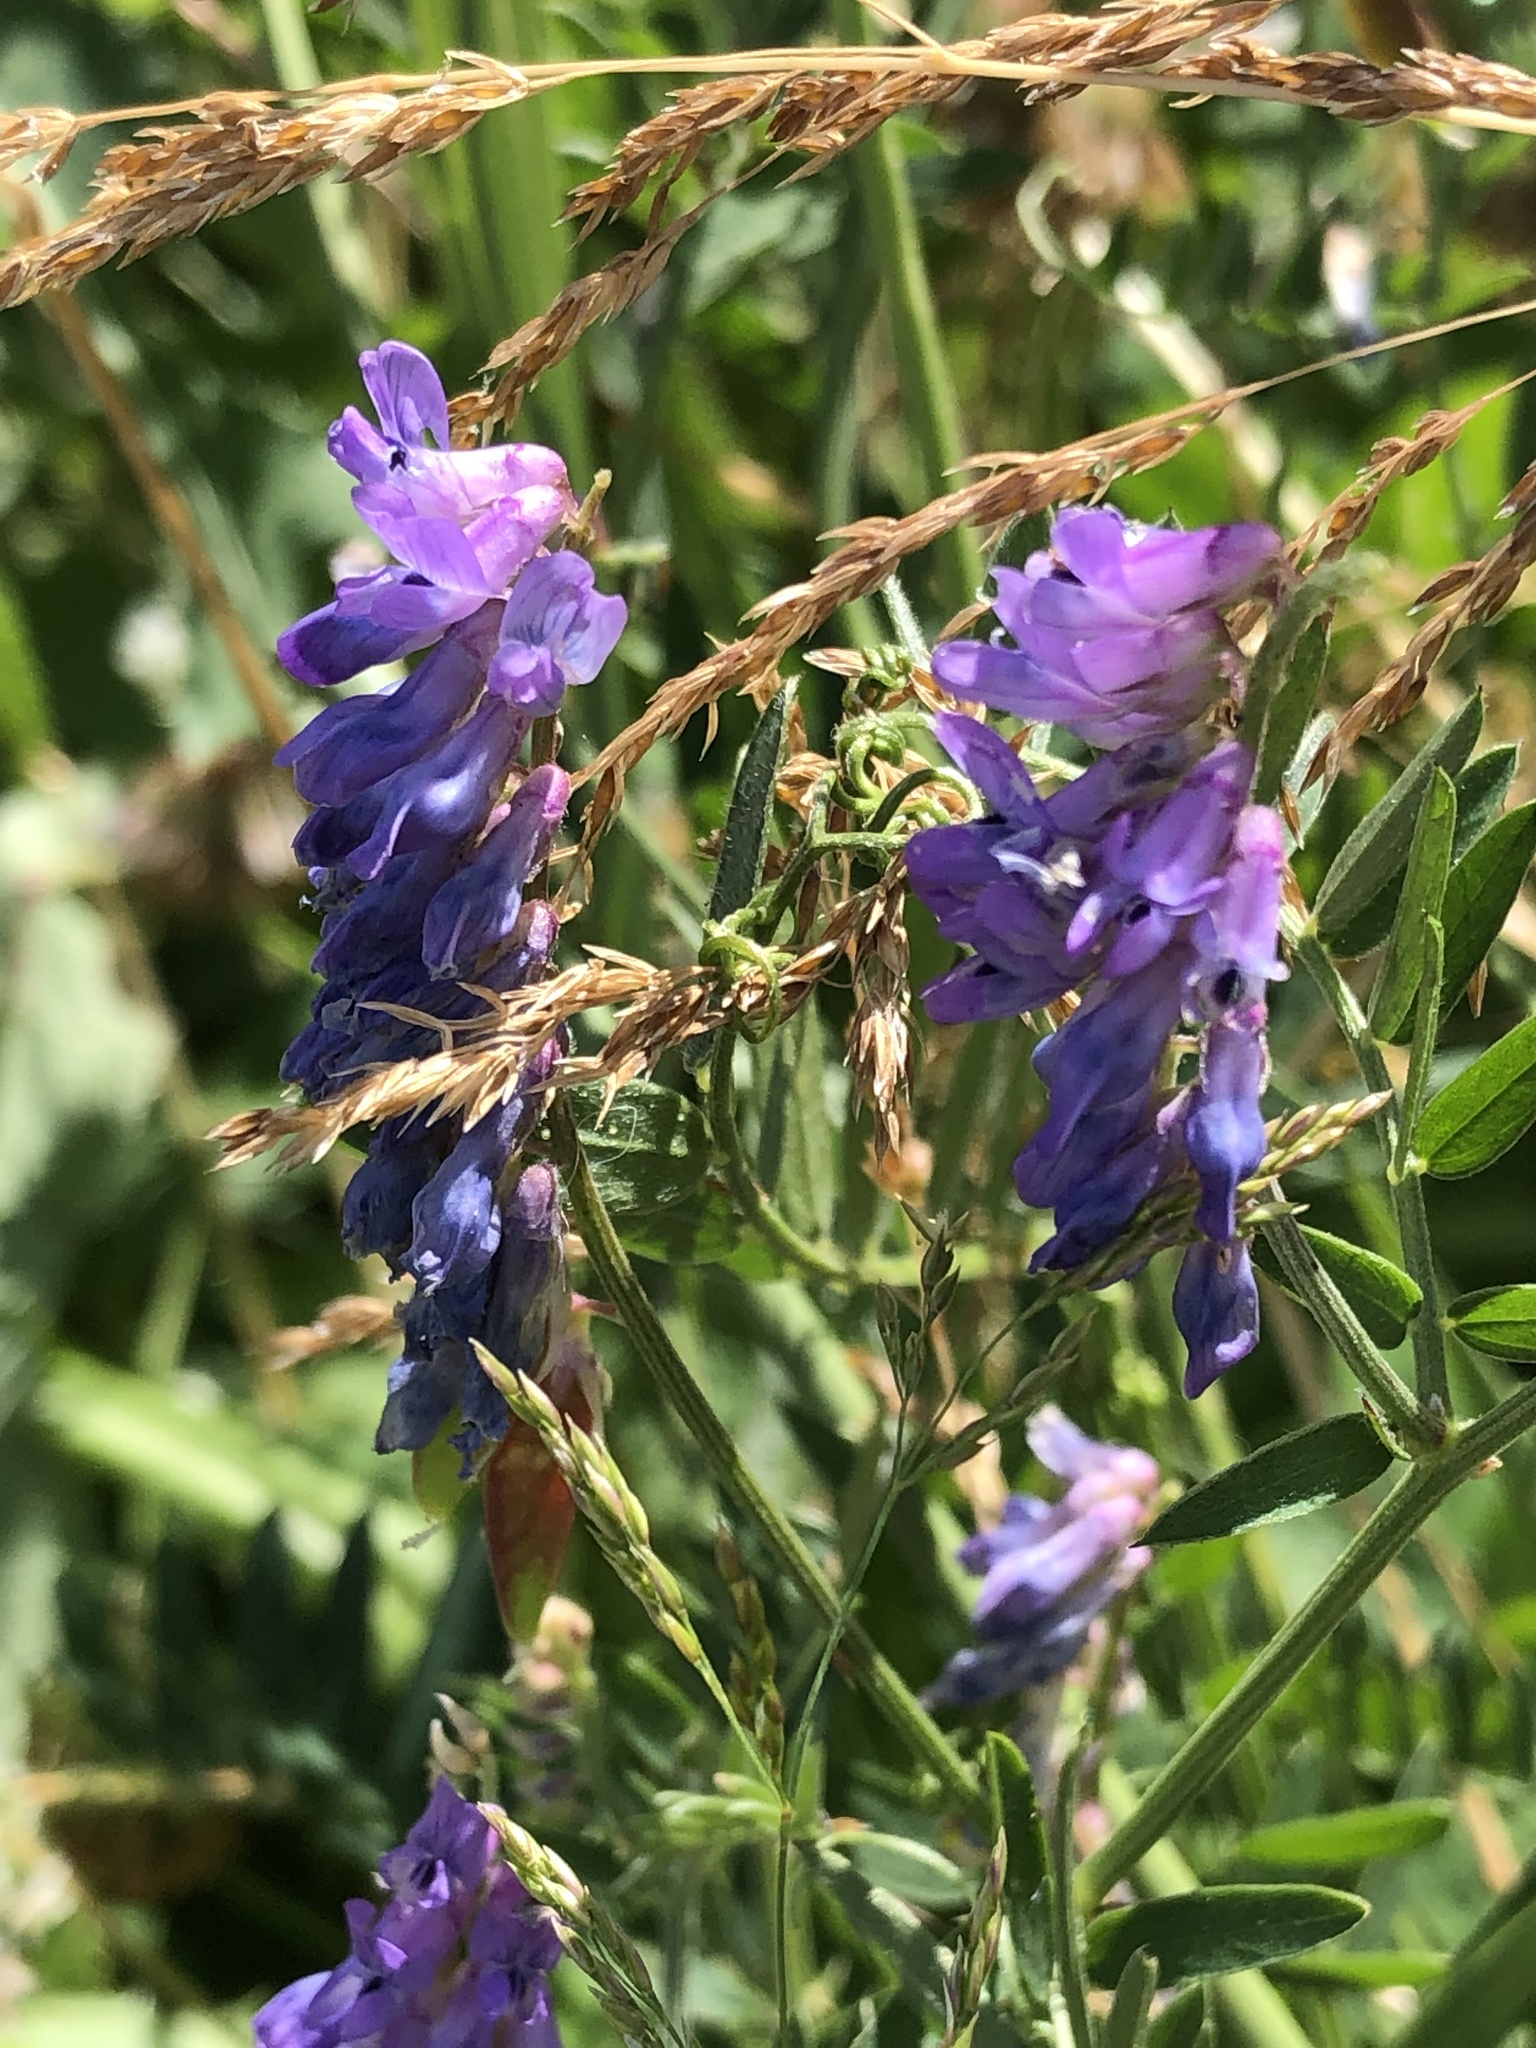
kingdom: Plantae
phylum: Tracheophyta
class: Magnoliopsida
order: Fabales
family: Fabaceae
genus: Vicia
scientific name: Vicia cracca
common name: Bird vetch
